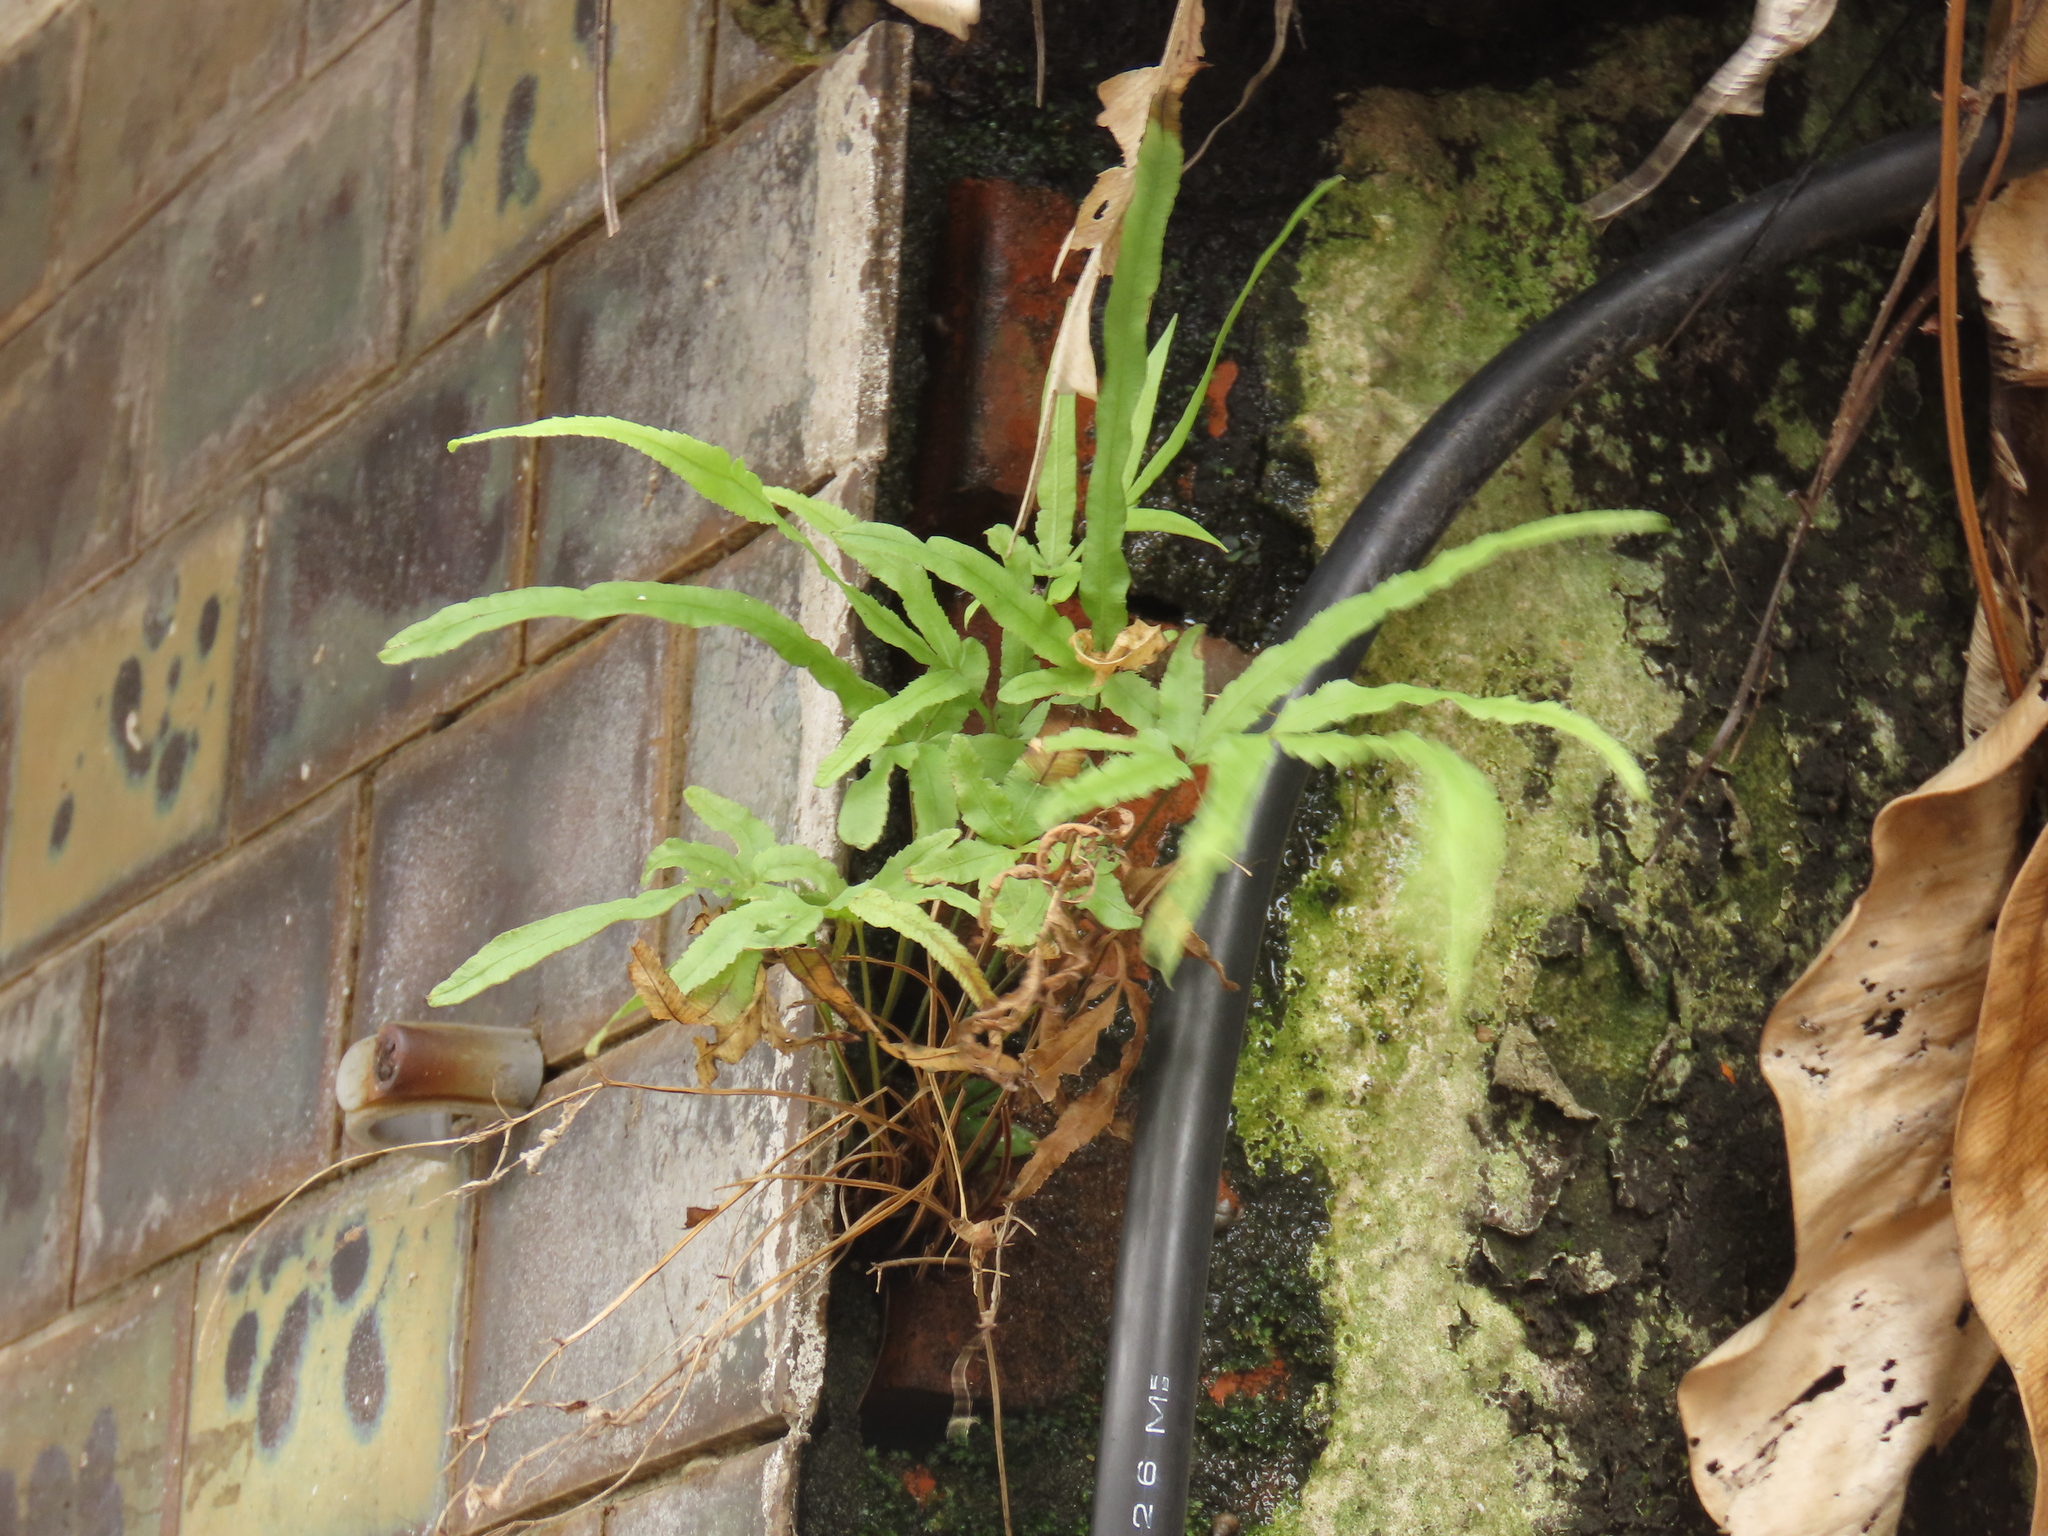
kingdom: Plantae
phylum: Tracheophyta
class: Polypodiopsida
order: Polypodiales
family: Pteridaceae
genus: Pteris
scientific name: Pteris multifida
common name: Spider brake
